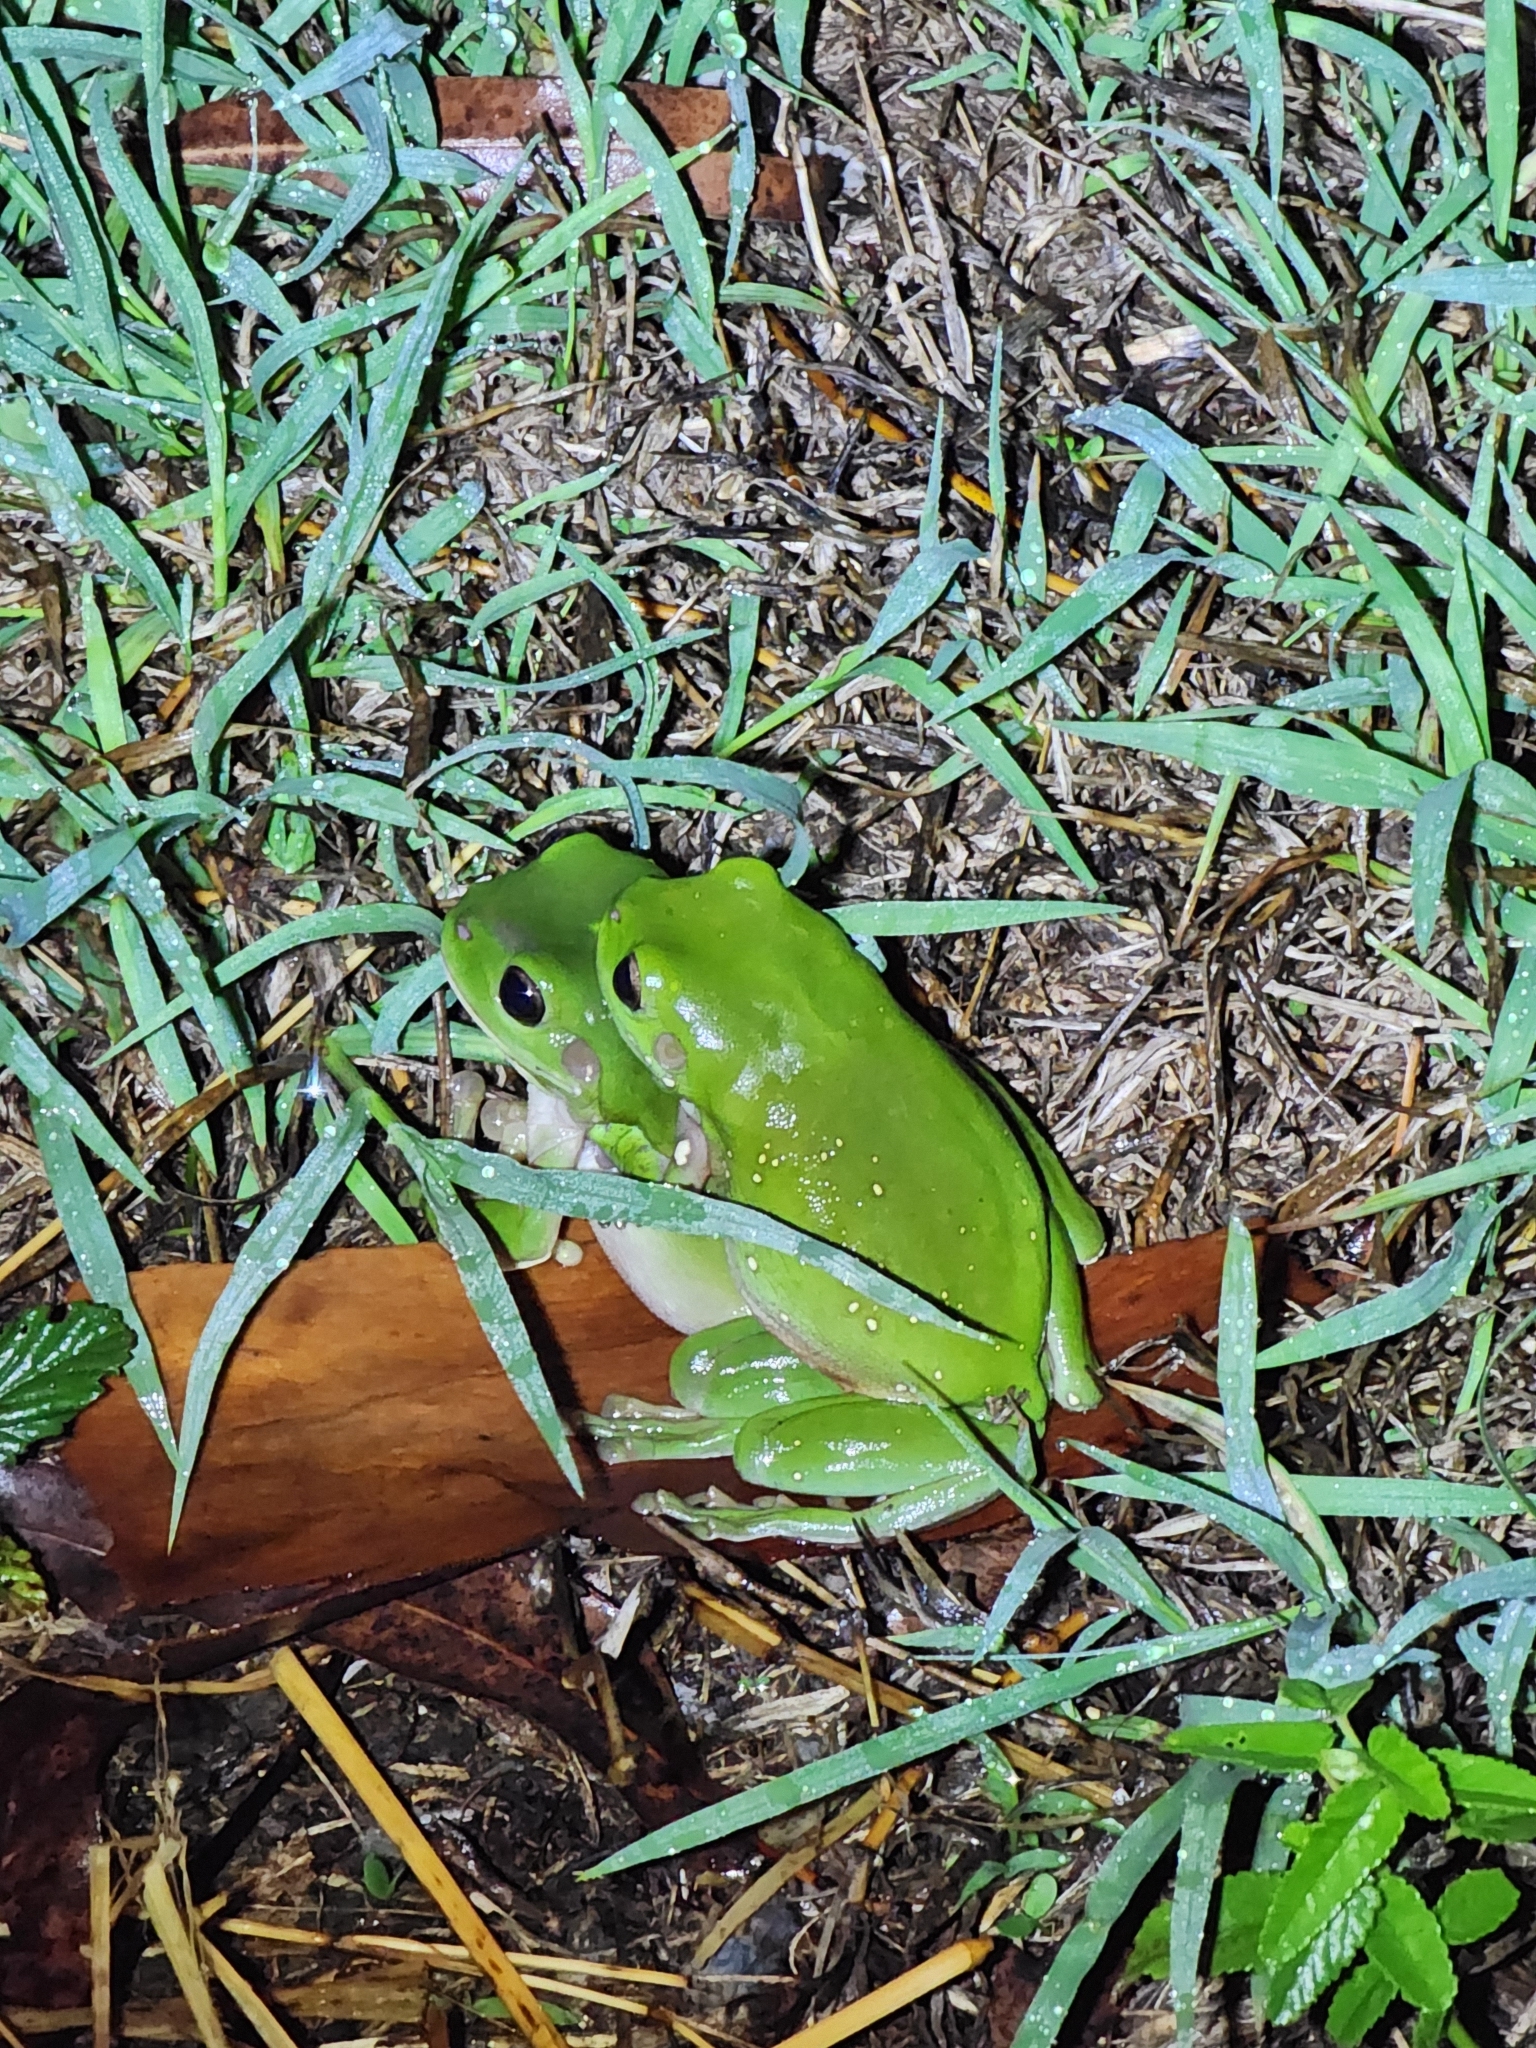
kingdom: Animalia
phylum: Chordata
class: Amphibia
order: Anura
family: Pelodryadidae
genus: Ranoidea
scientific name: Ranoidea caerulea
